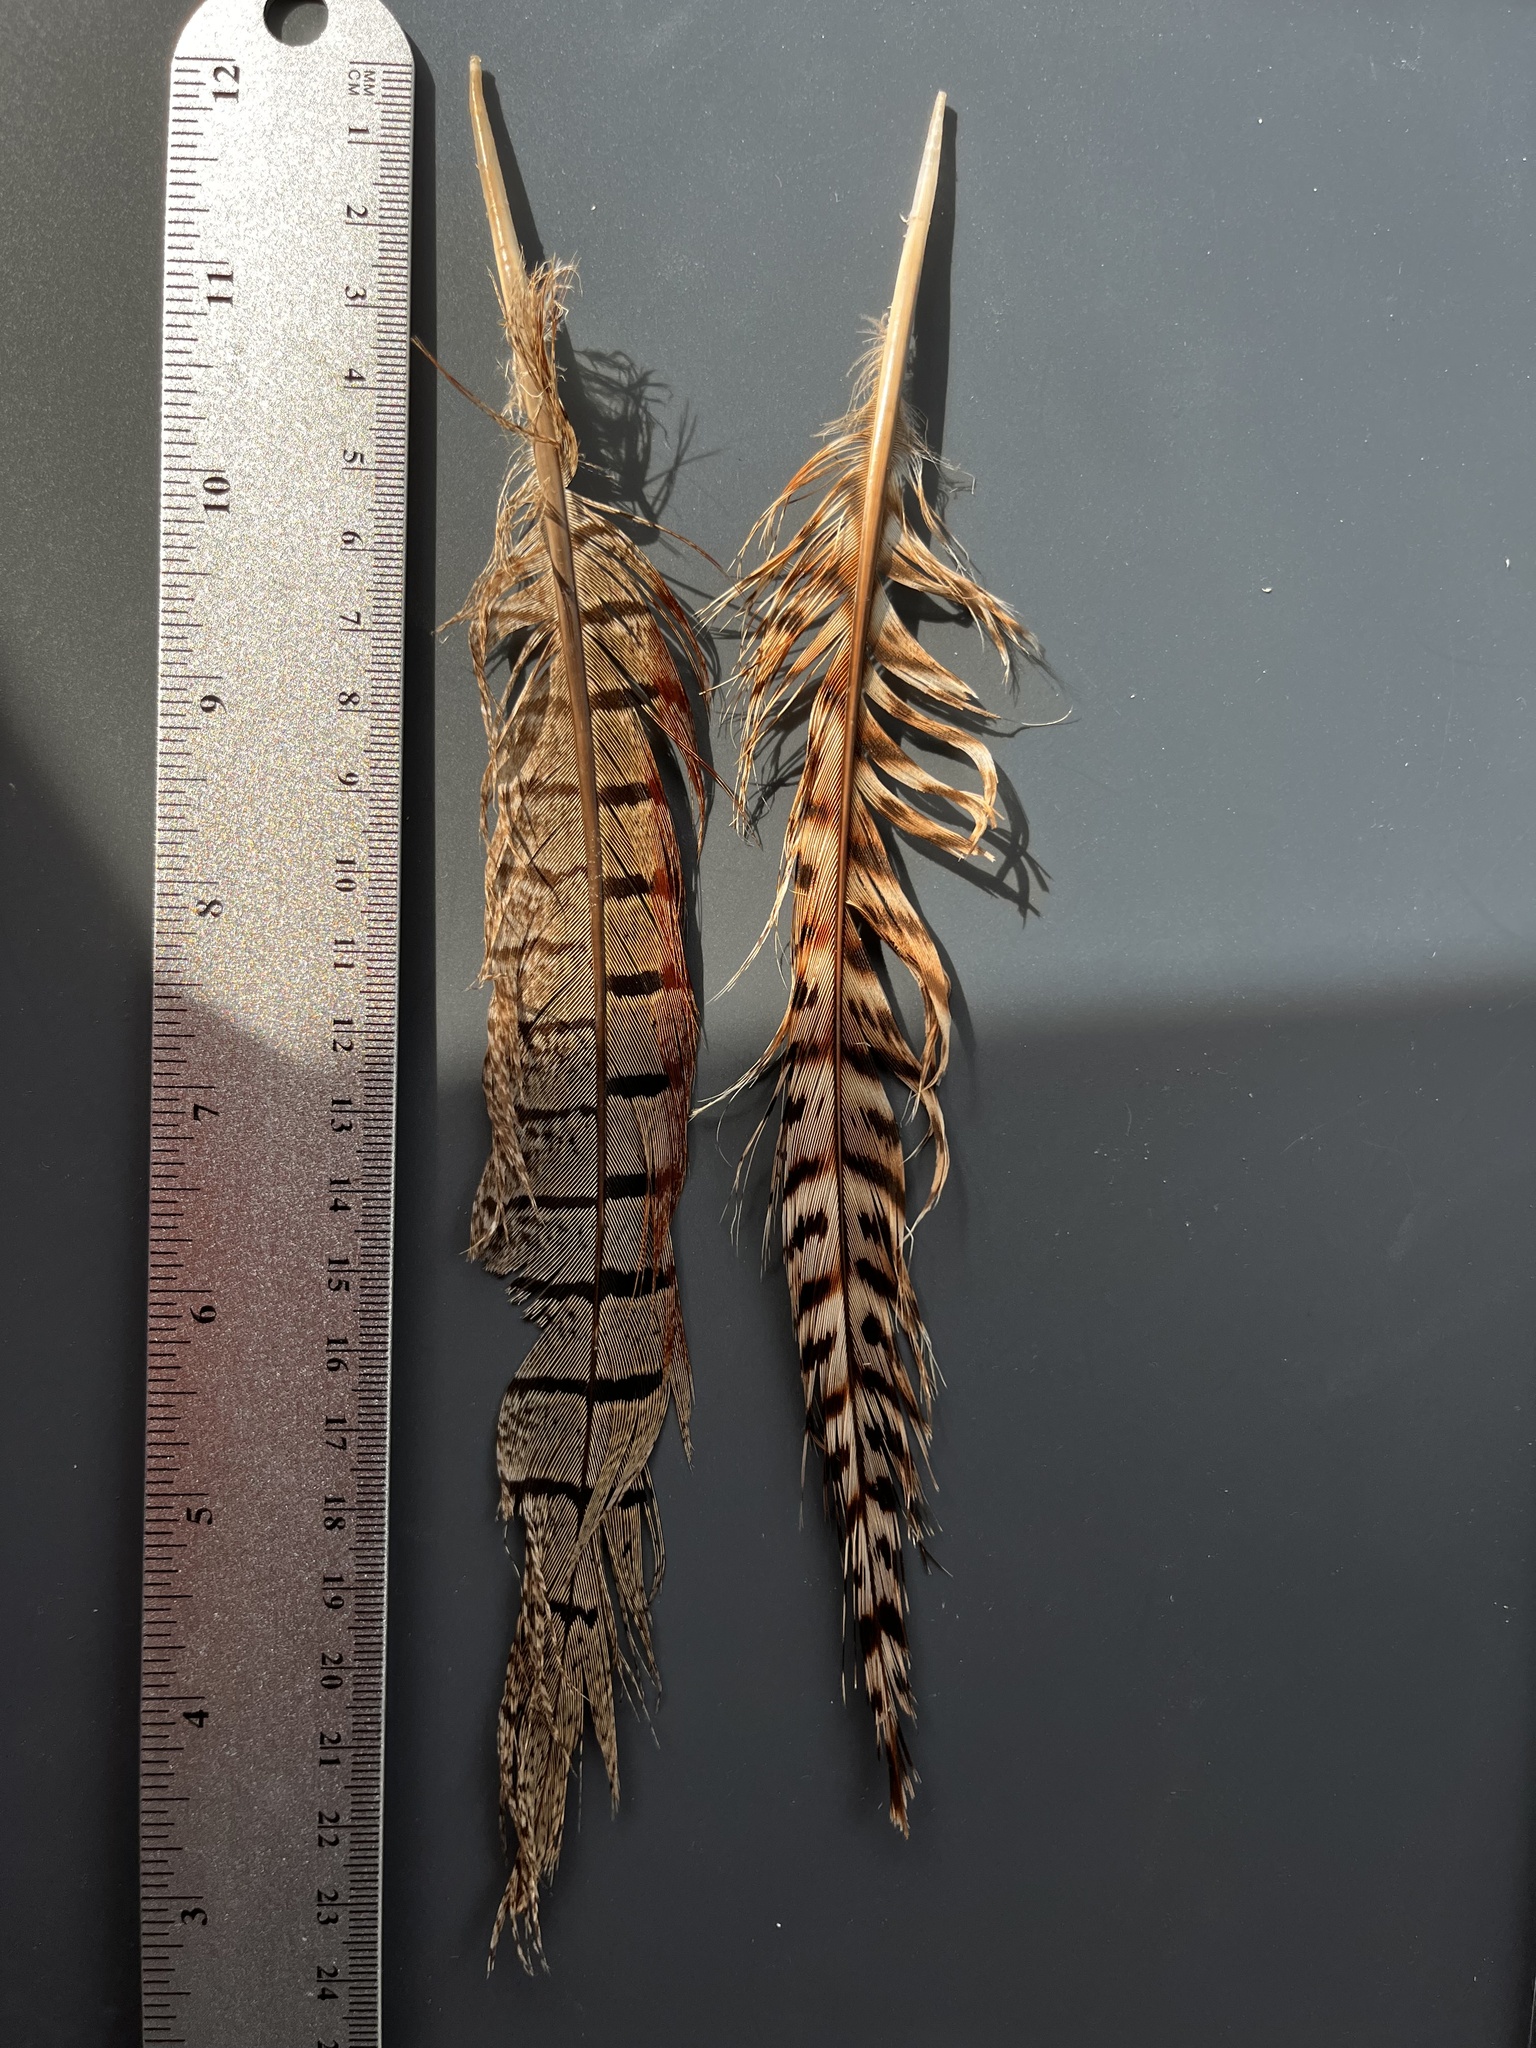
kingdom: Animalia
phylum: Chordata
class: Aves
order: Galliformes
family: Phasianidae
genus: Phasianus
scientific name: Phasianus colchicus
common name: Common pheasant
